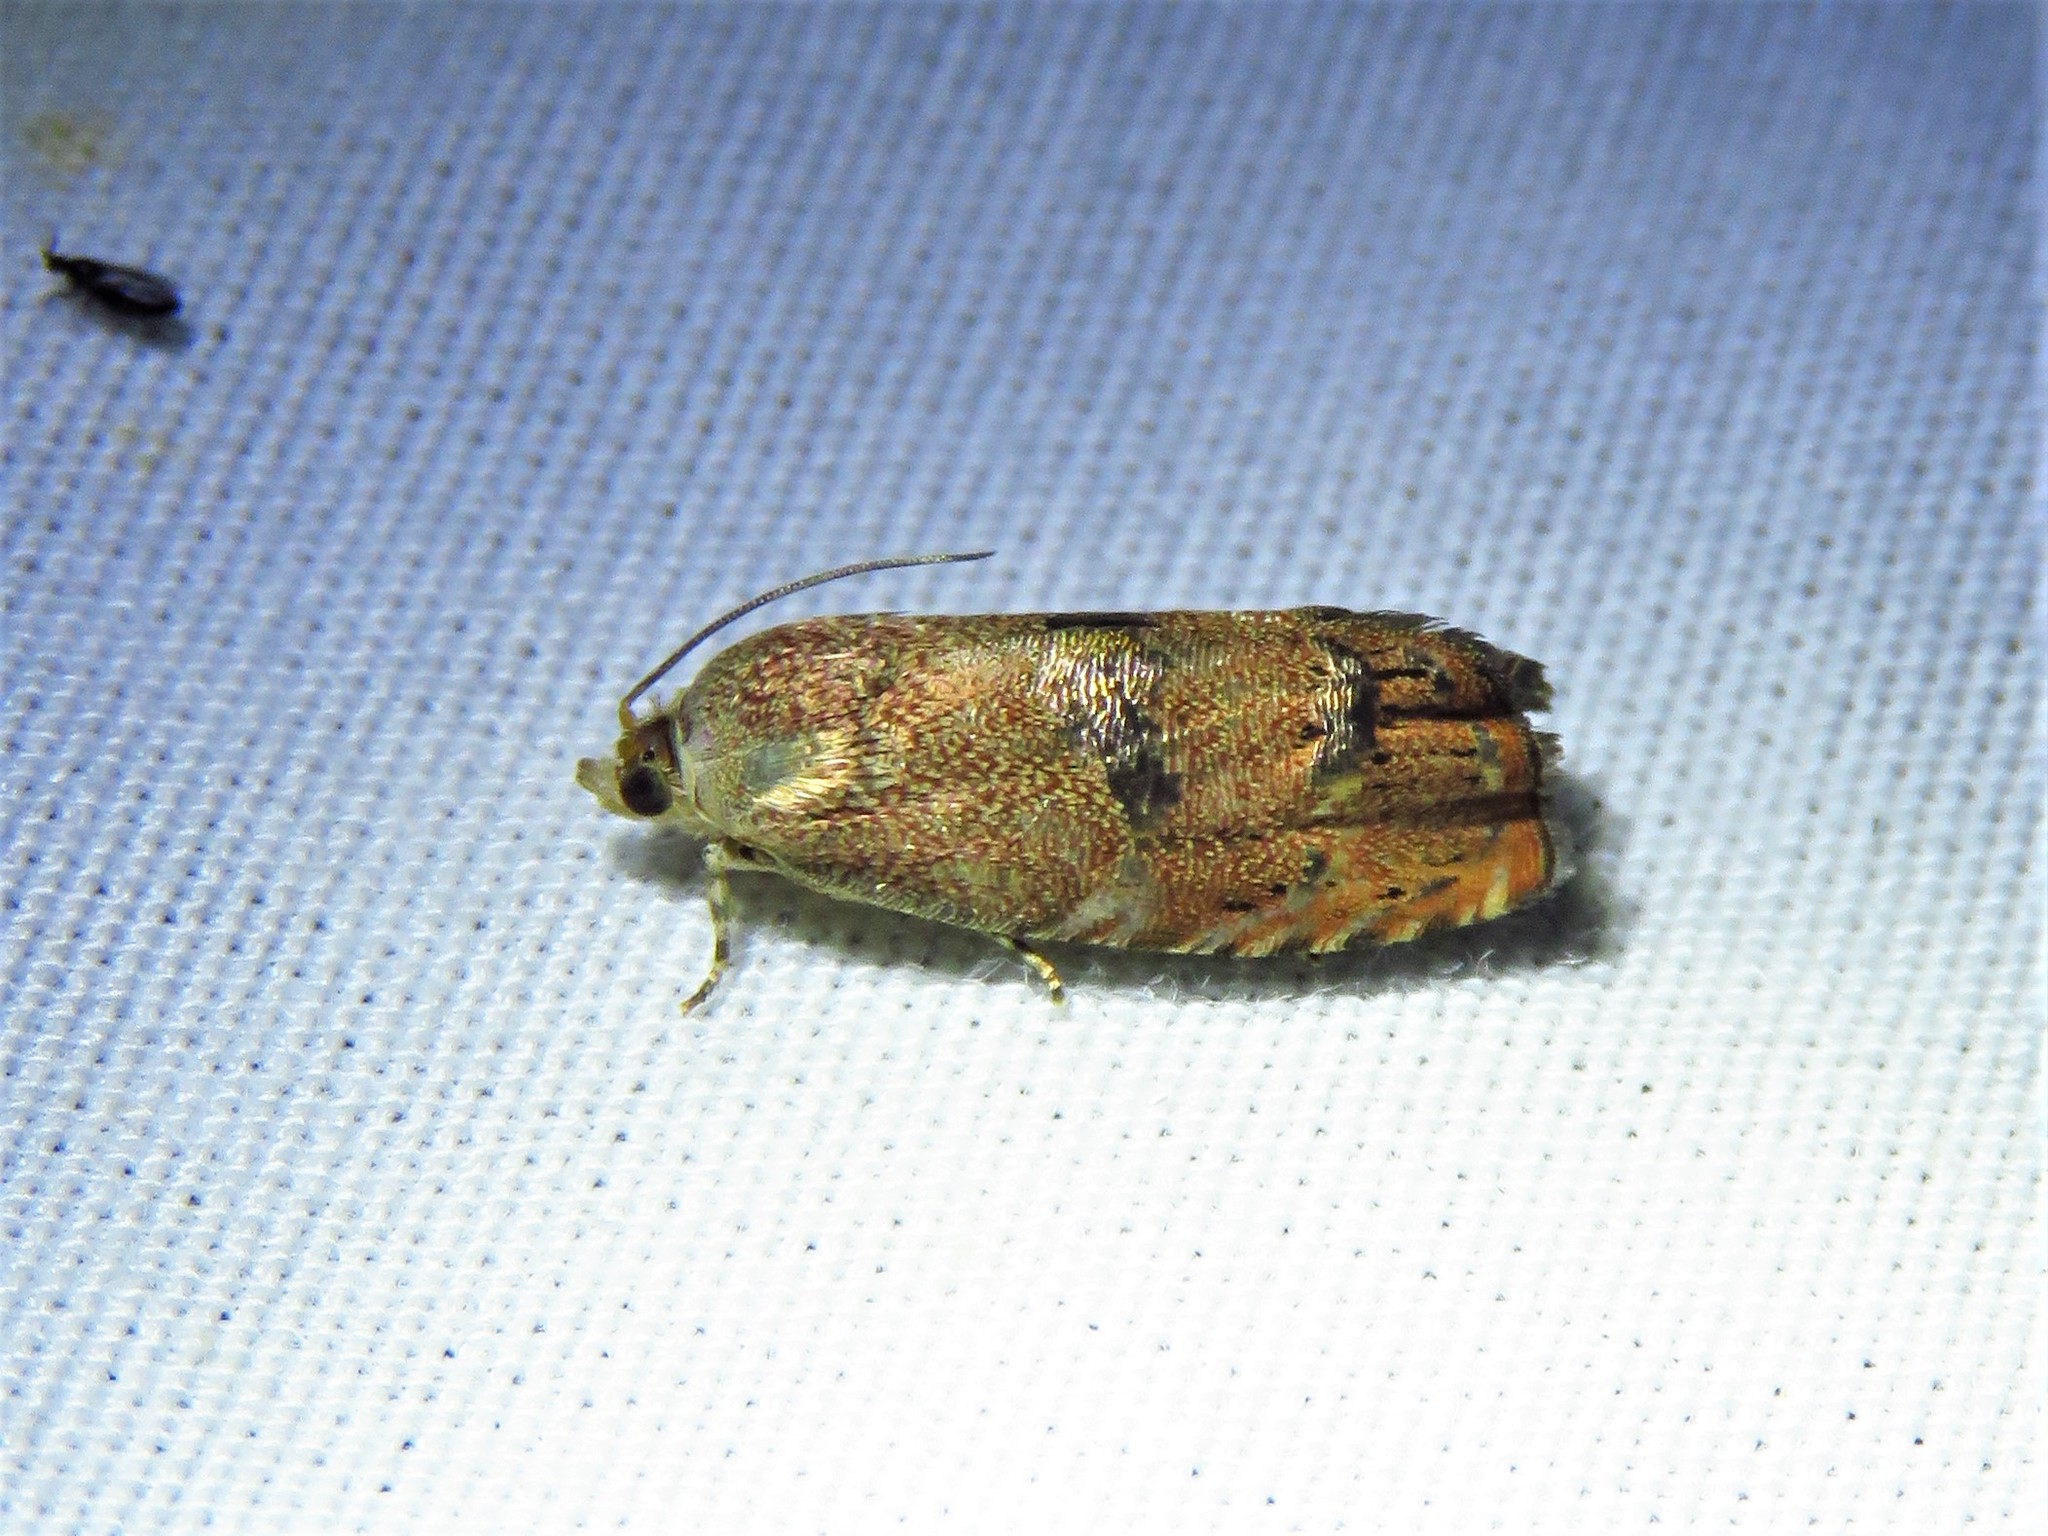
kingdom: Animalia
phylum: Arthropoda
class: Insecta
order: Lepidoptera
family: Tortricidae
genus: Cydia
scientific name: Cydia latiferreana
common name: Filbertworm moth
